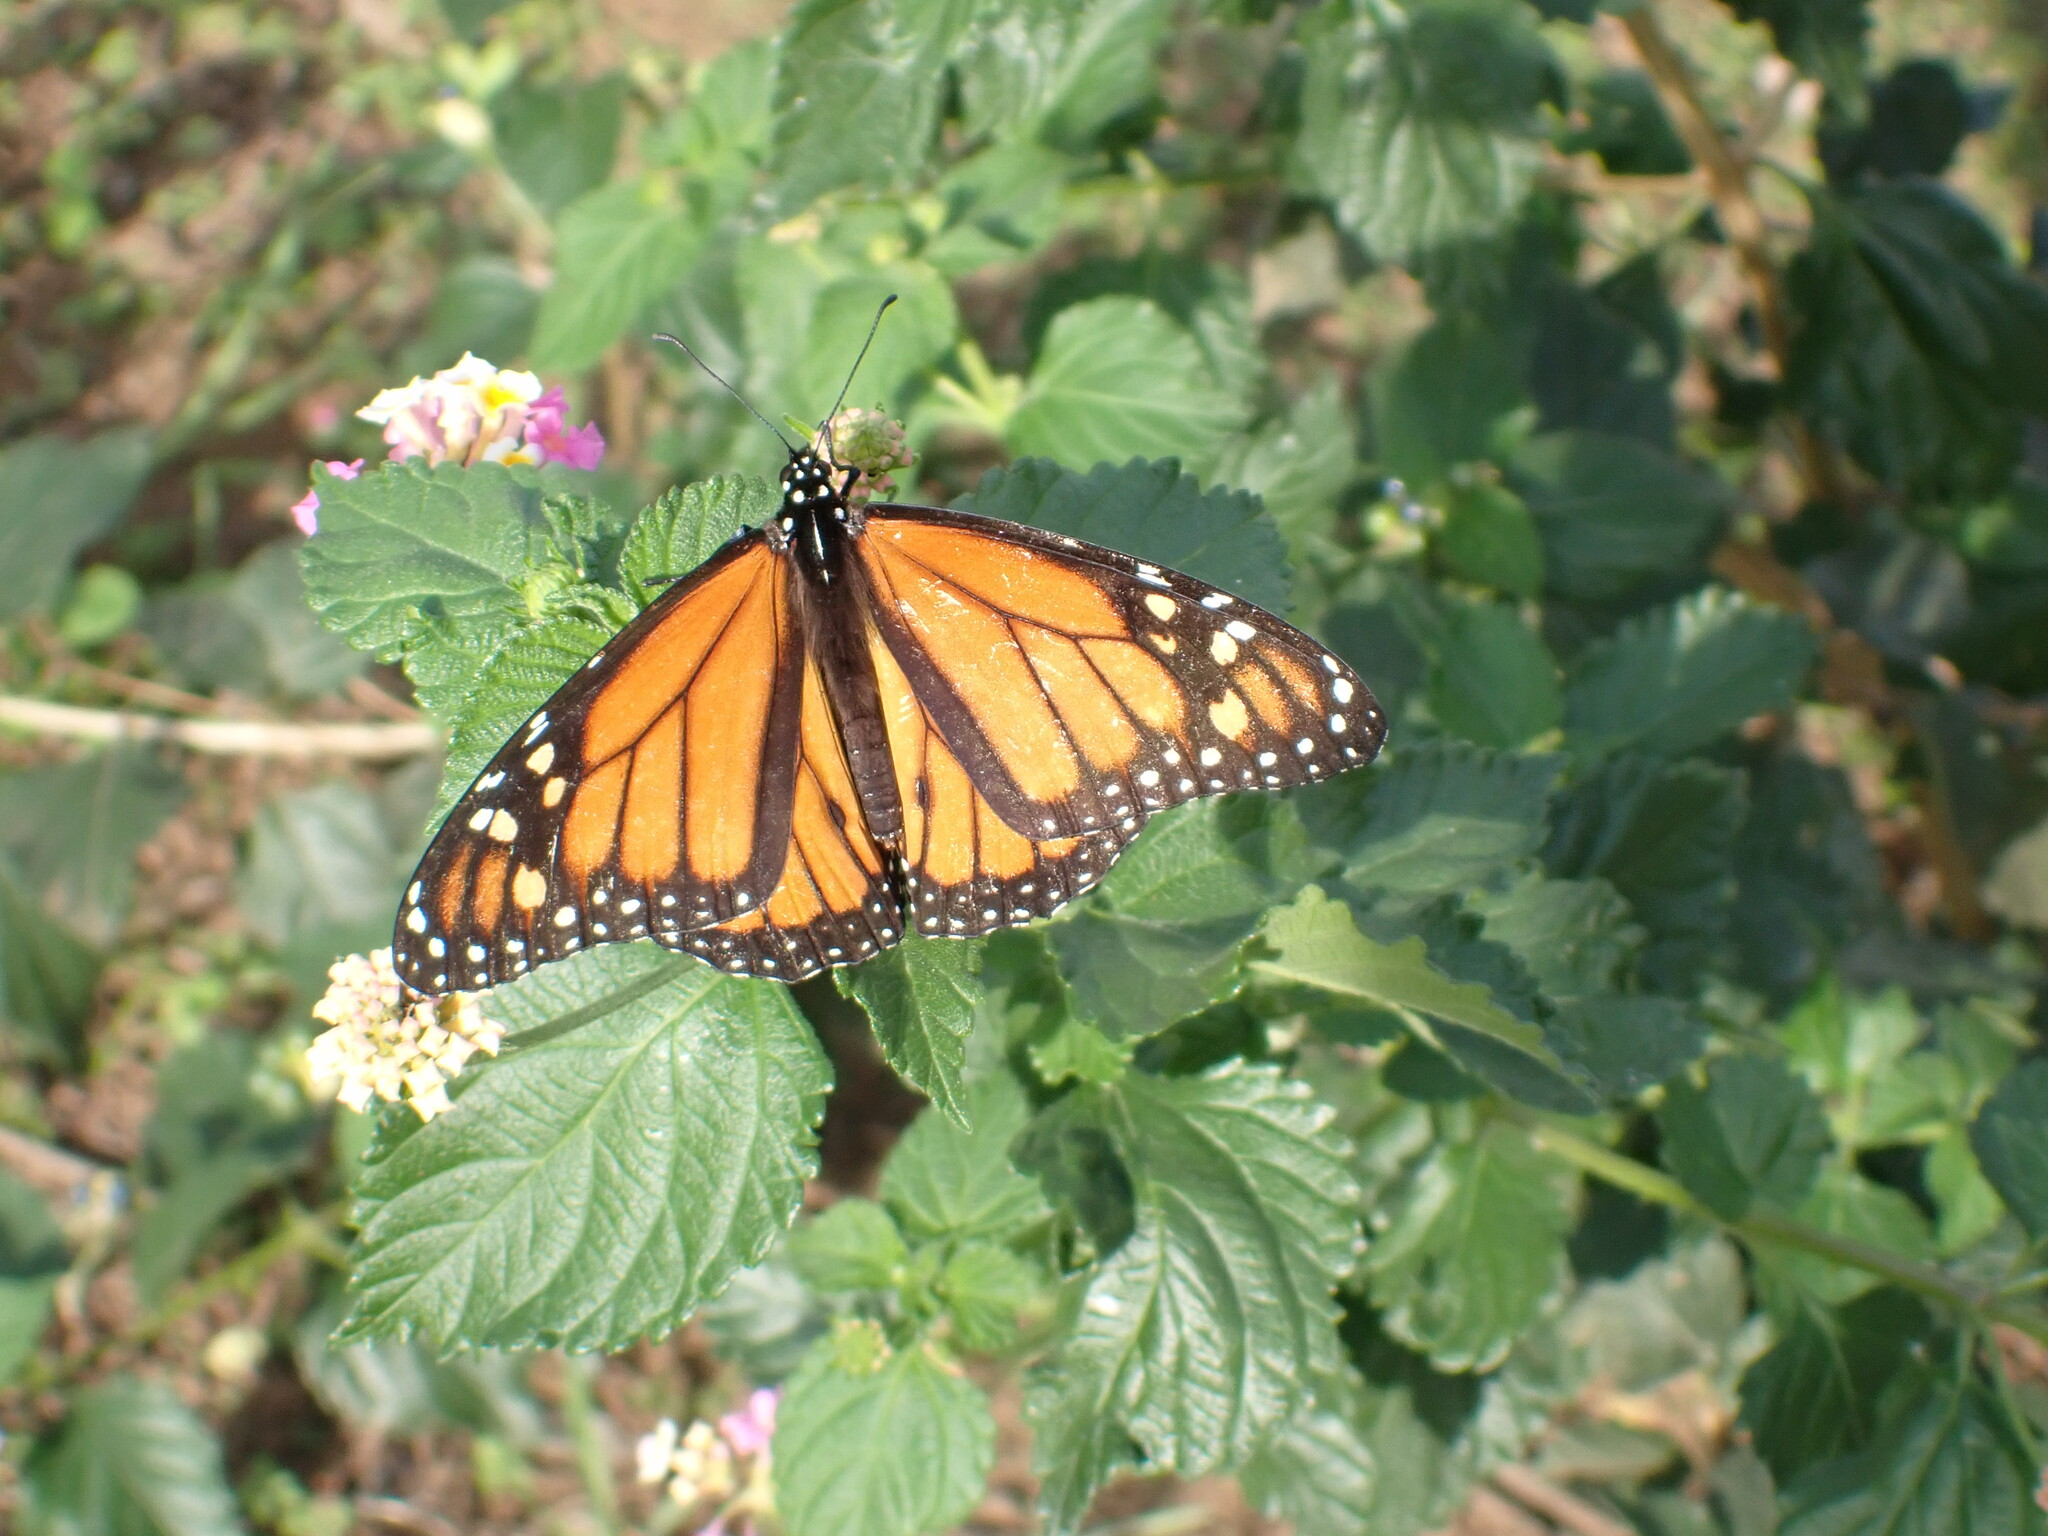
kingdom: Animalia
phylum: Arthropoda
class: Insecta
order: Lepidoptera
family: Nymphalidae
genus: Danaus
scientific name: Danaus plexippus
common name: Monarch
